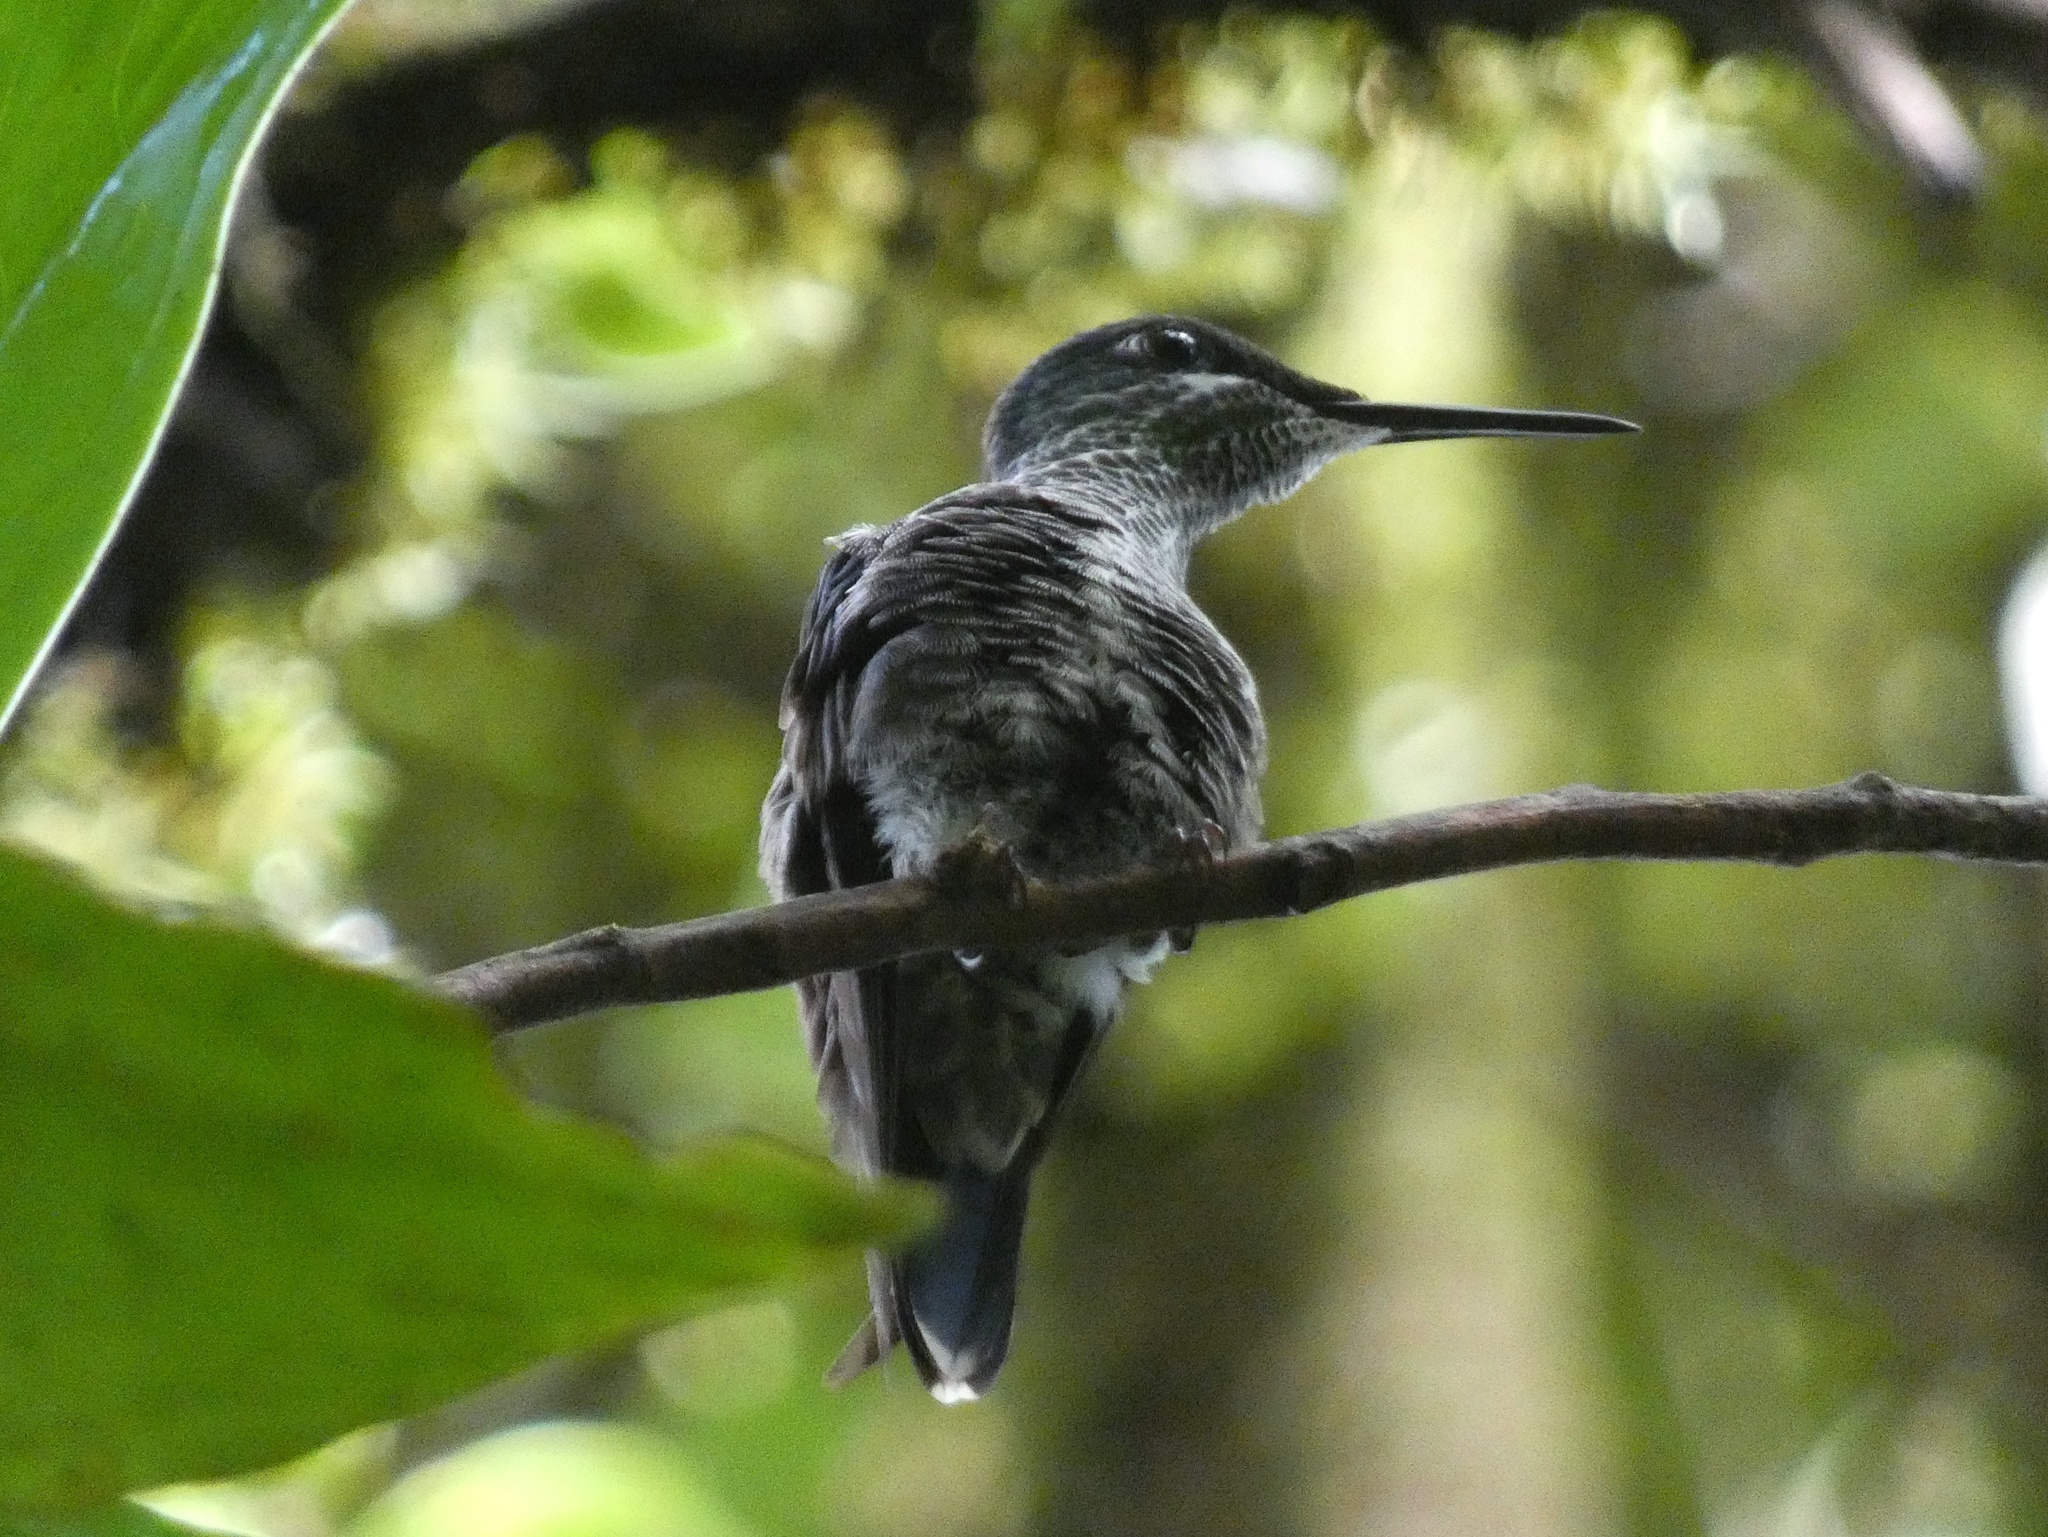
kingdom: Animalia
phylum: Chordata
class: Aves
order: Apodiformes
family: Trochilidae
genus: Heliodoxa
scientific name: Heliodoxa jacula
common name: Green-crowned brilliant
